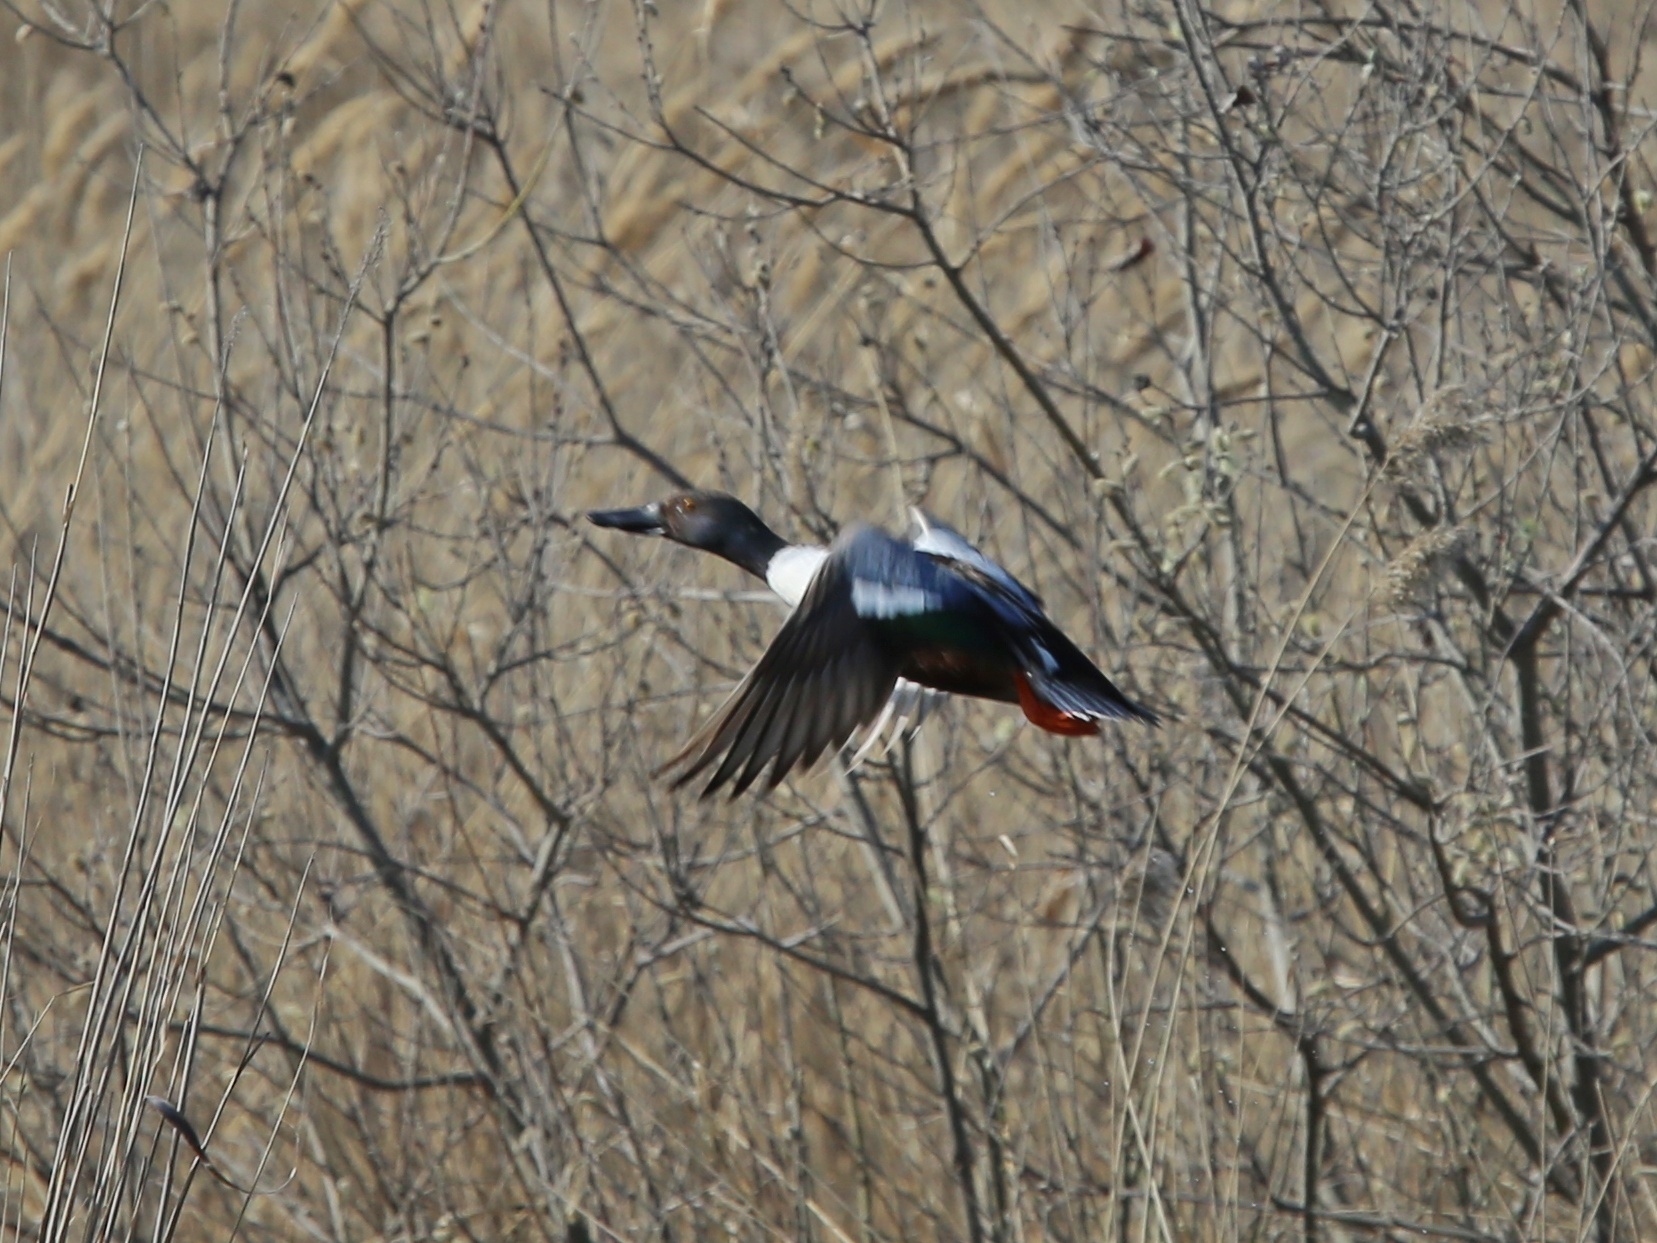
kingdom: Animalia
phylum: Chordata
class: Aves
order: Anseriformes
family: Anatidae
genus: Spatula
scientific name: Spatula clypeata
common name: Northern shoveler
